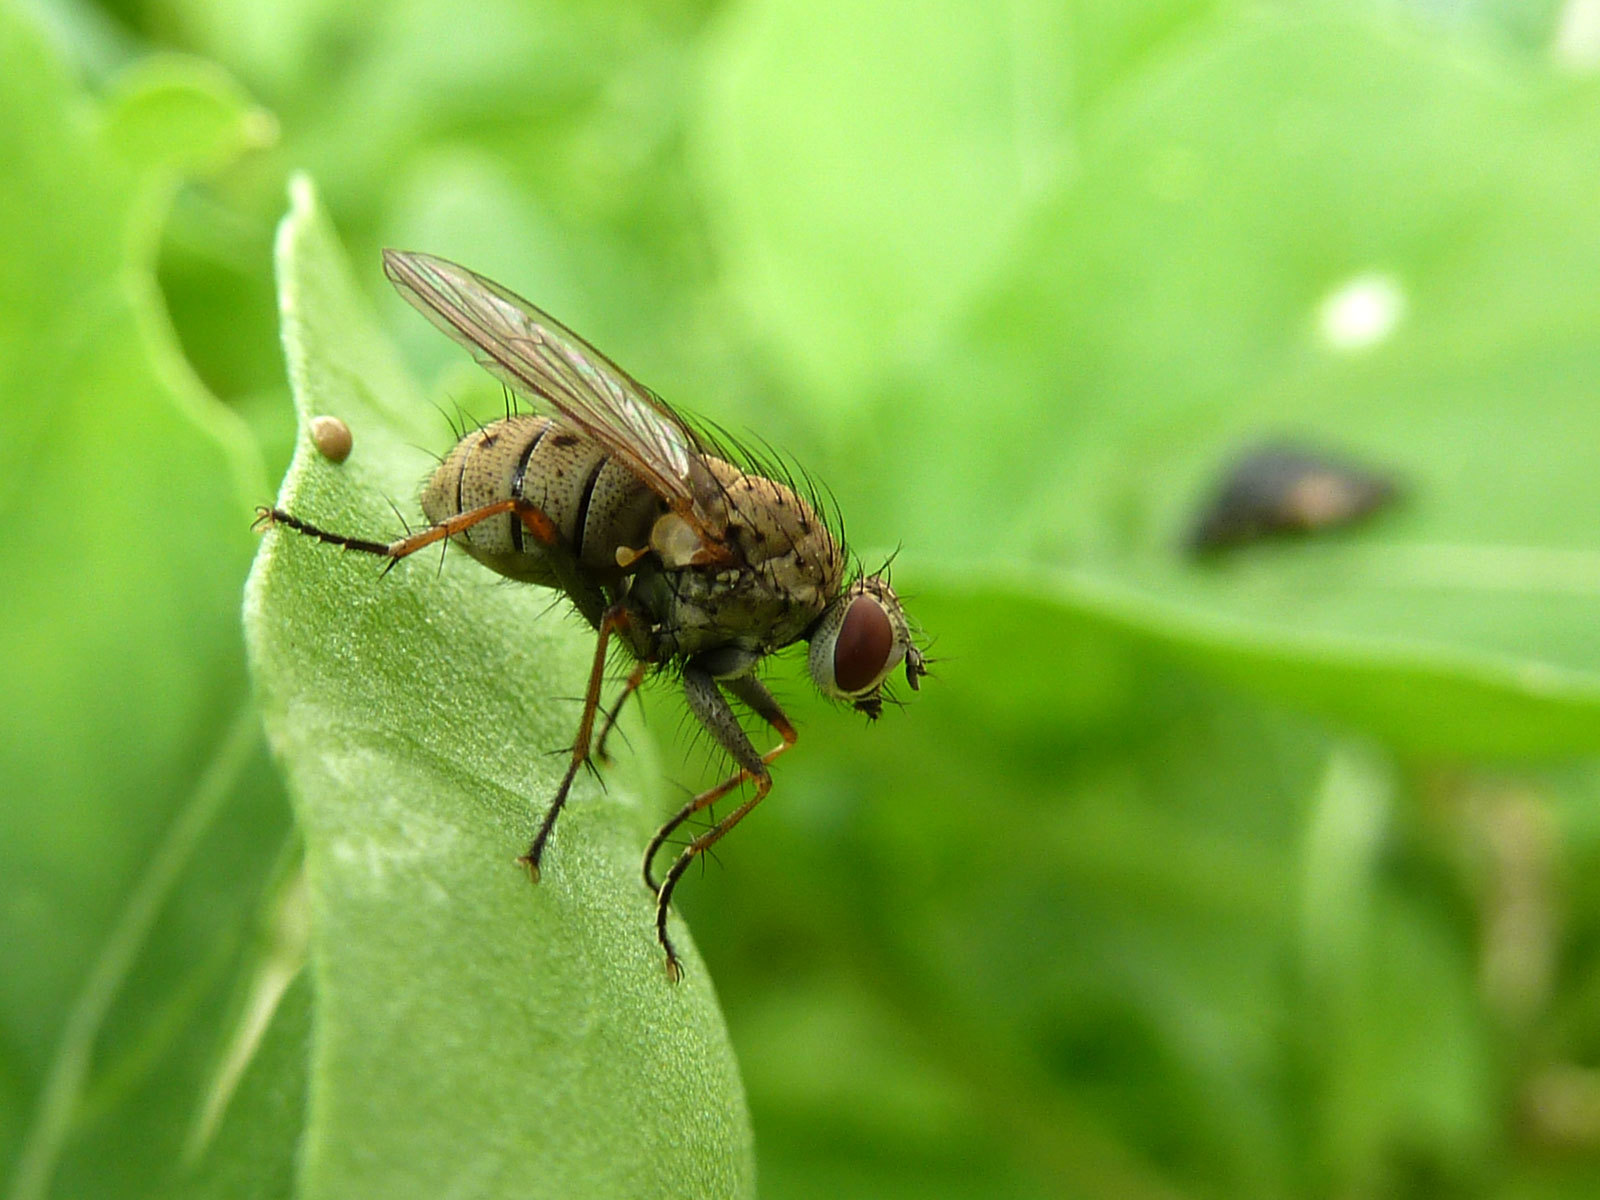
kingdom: Animalia
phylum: Arthropoda
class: Insecta
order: Diptera
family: Muscidae
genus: Coenosia
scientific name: Coenosia tigrina
